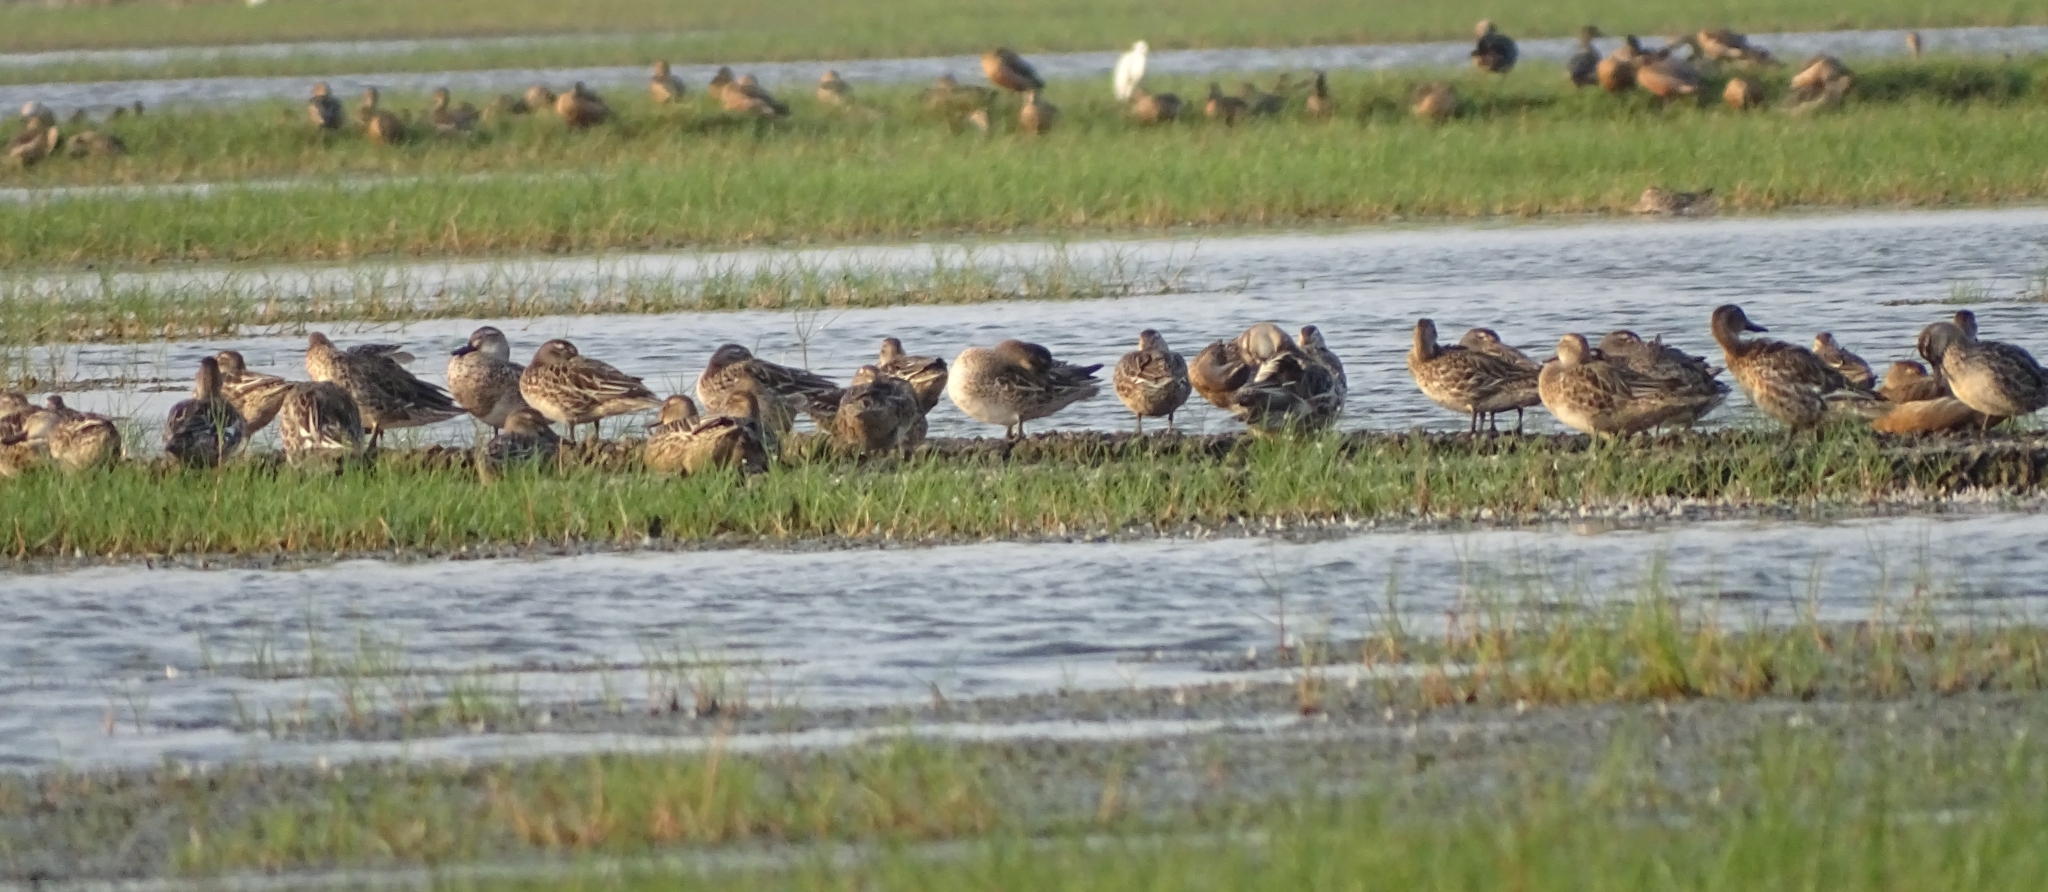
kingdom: Animalia
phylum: Chordata
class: Aves
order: Anseriformes
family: Anatidae
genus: Spatula
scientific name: Spatula querquedula
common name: Garganey
